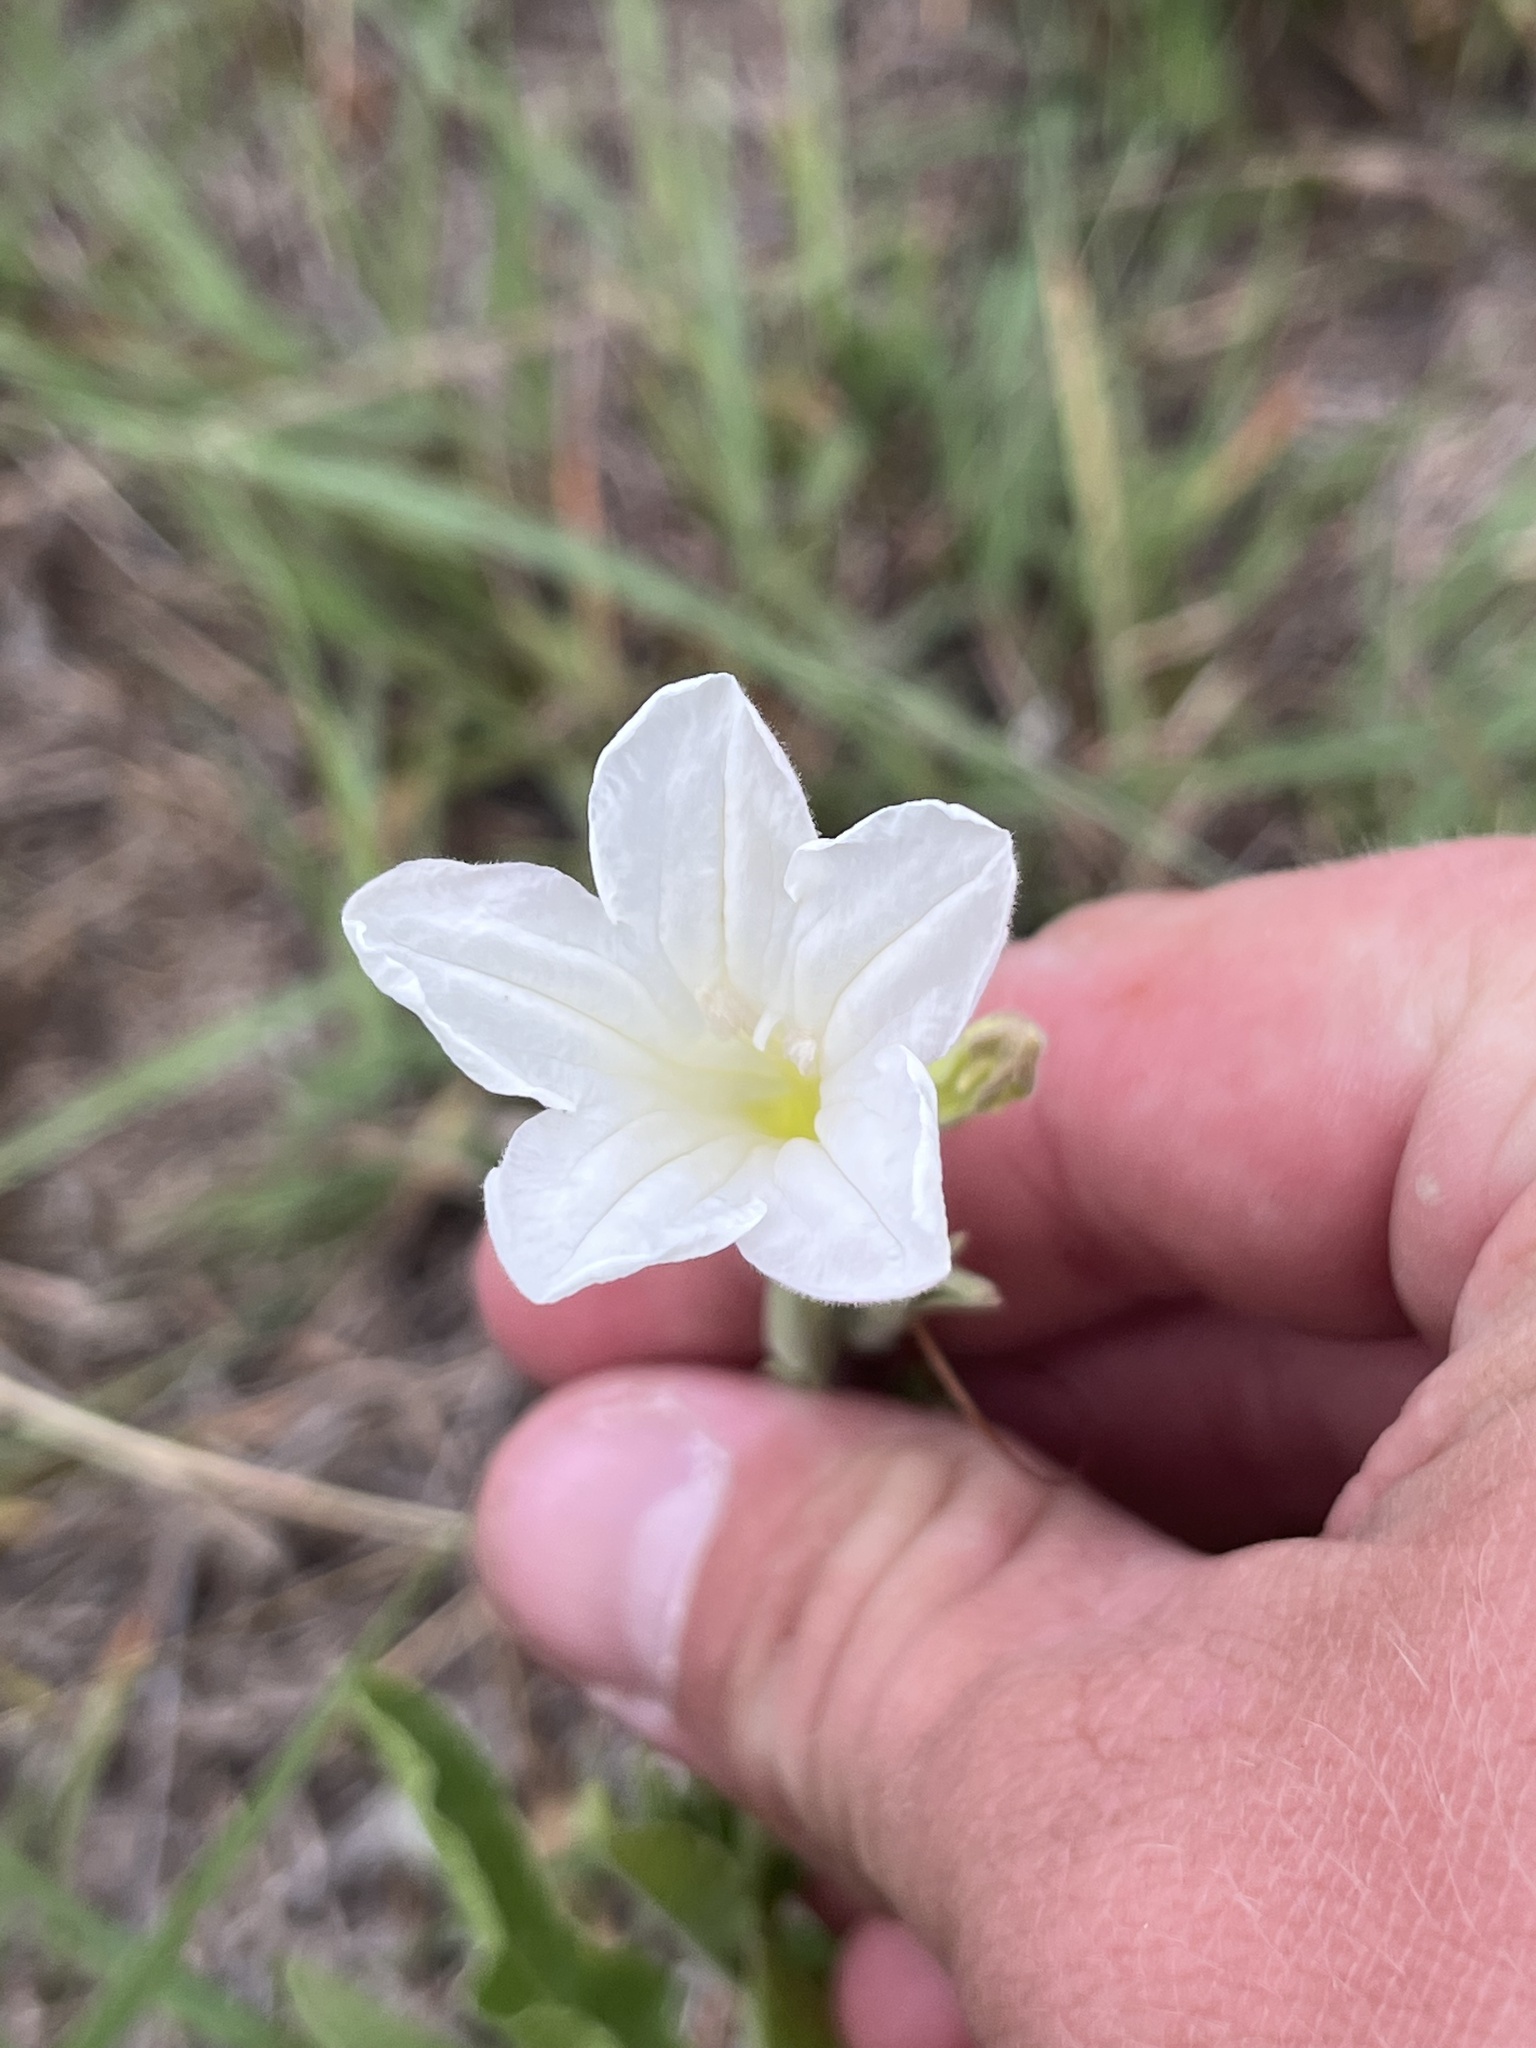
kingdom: Plantae
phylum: Tracheophyta
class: Magnoliopsida
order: Lamiales
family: Acanthaceae
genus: Ruellia
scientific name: Ruellia metziae
